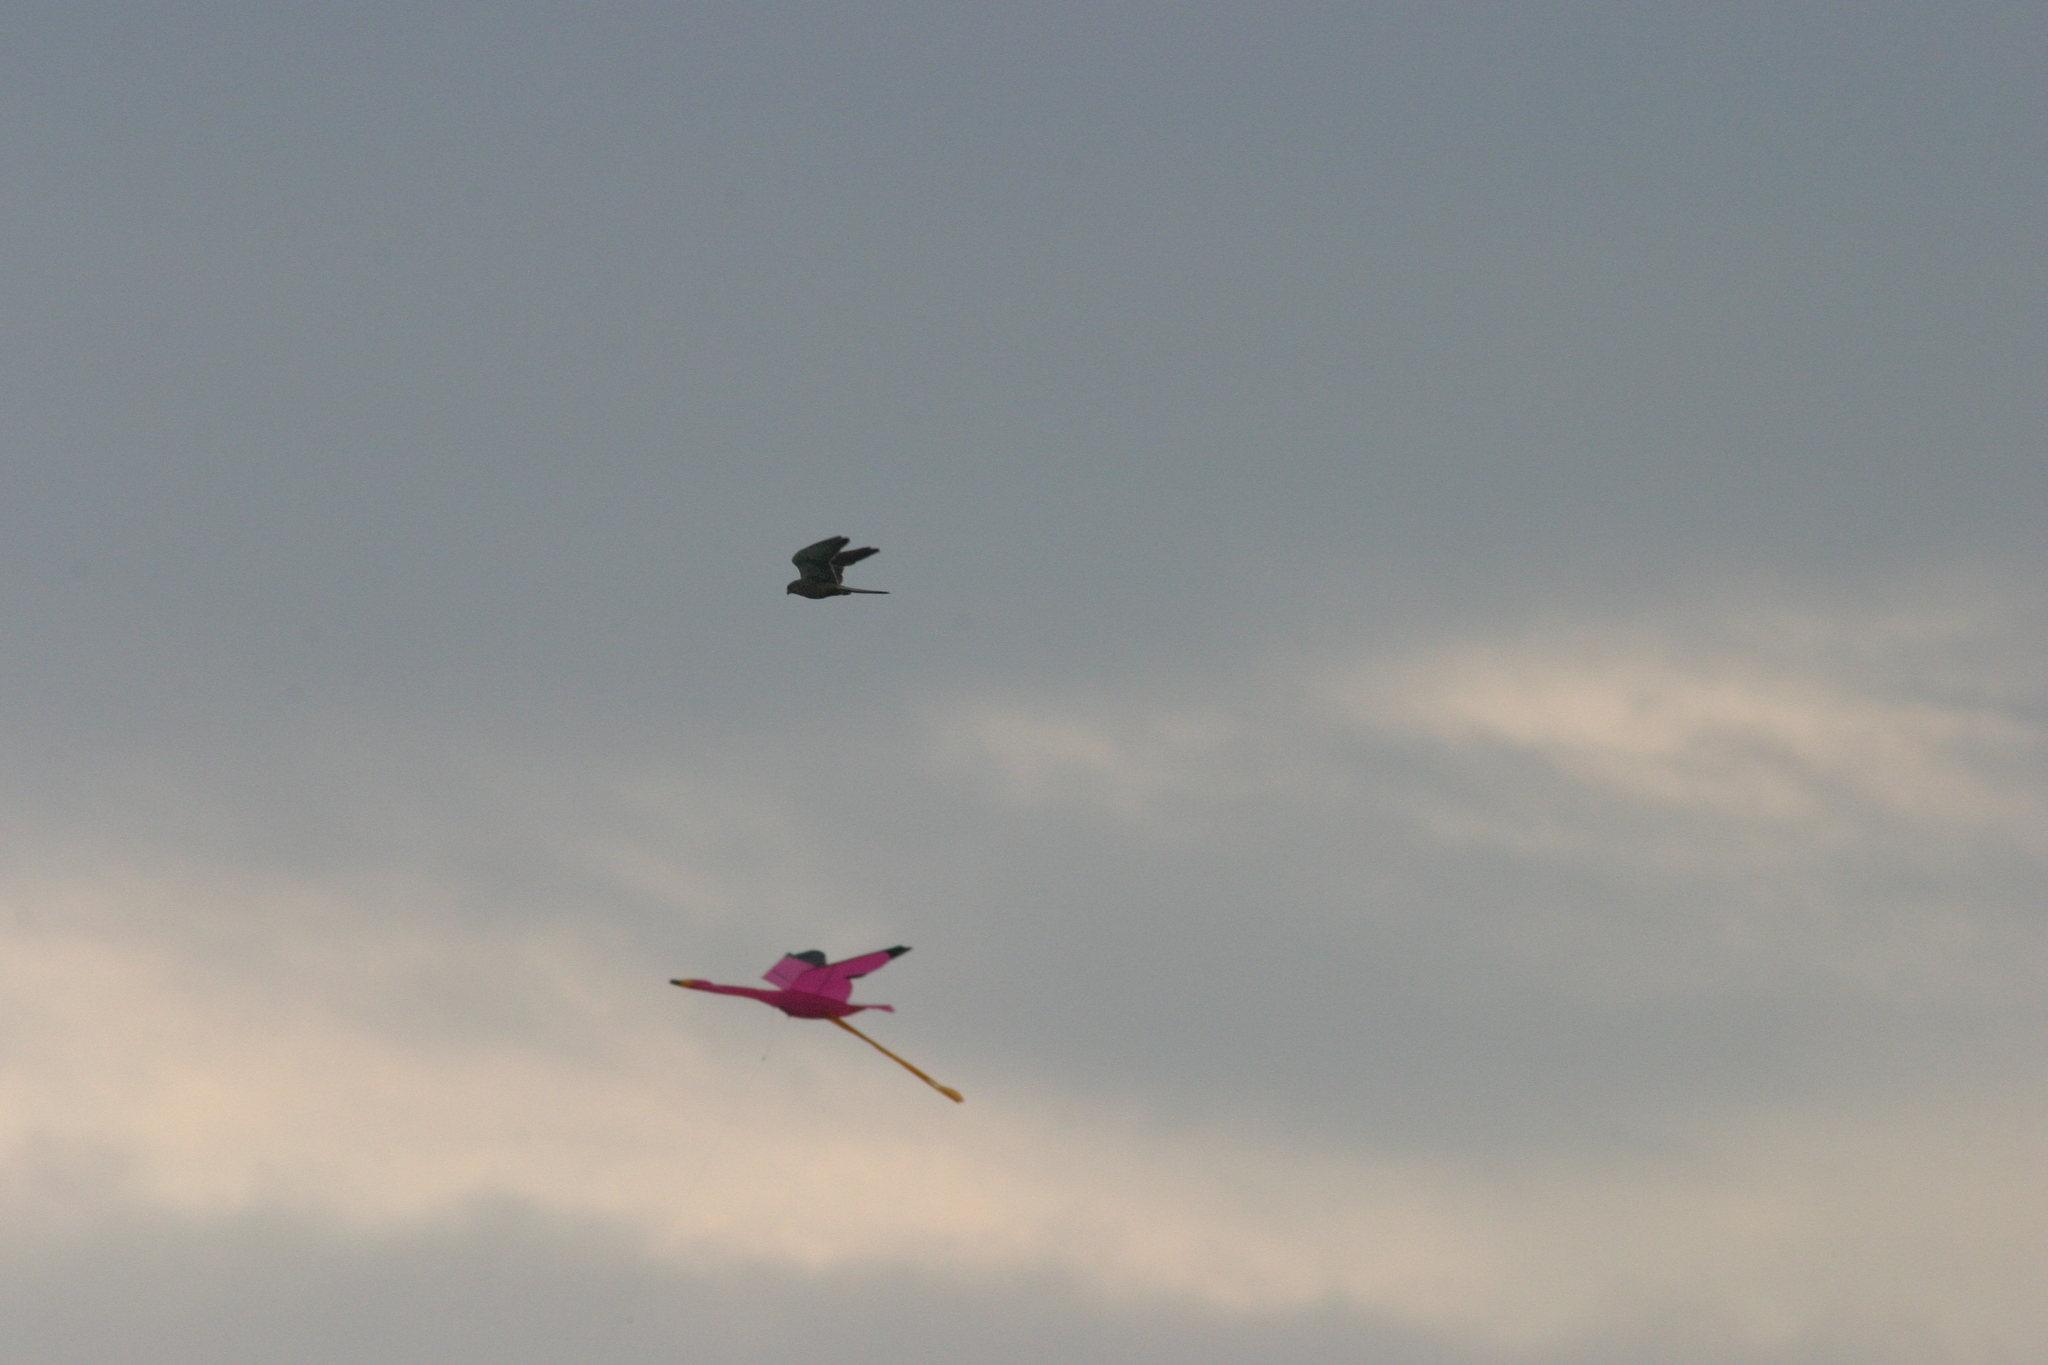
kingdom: Animalia
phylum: Chordata
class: Aves
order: Falconiformes
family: Falconidae
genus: Falco
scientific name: Falco tinnunculus
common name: Common kestrel
